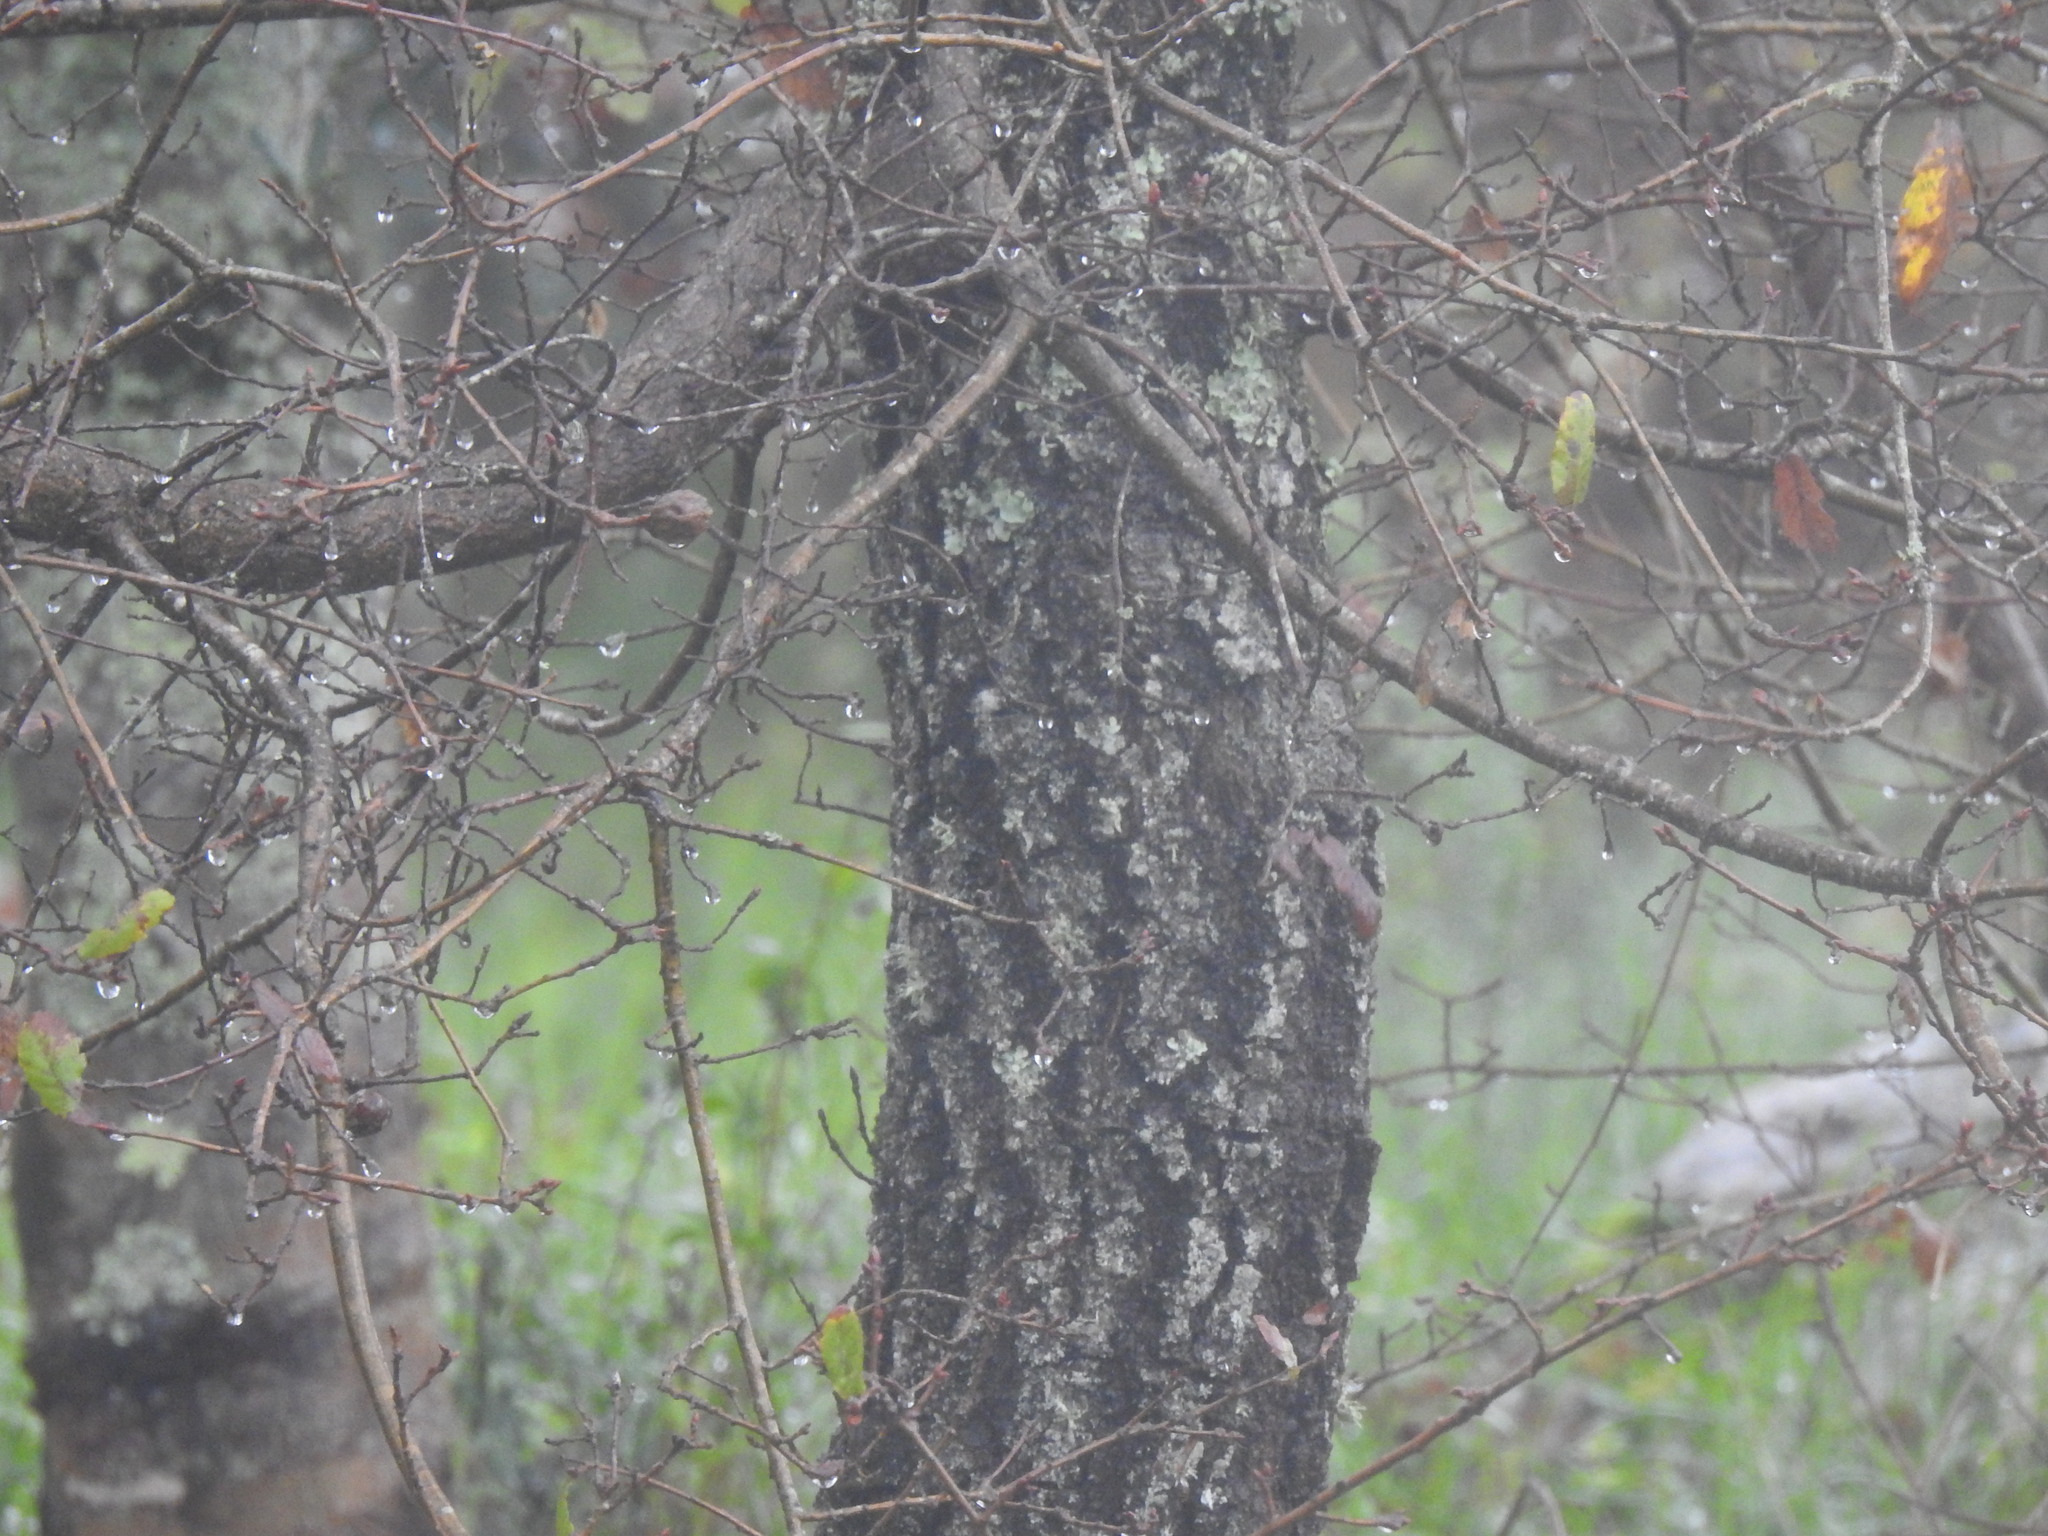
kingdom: Plantae
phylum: Tracheophyta
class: Magnoliopsida
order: Fagales
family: Fagaceae
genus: Quercus
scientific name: Quercus faginea
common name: Gall oak tree
